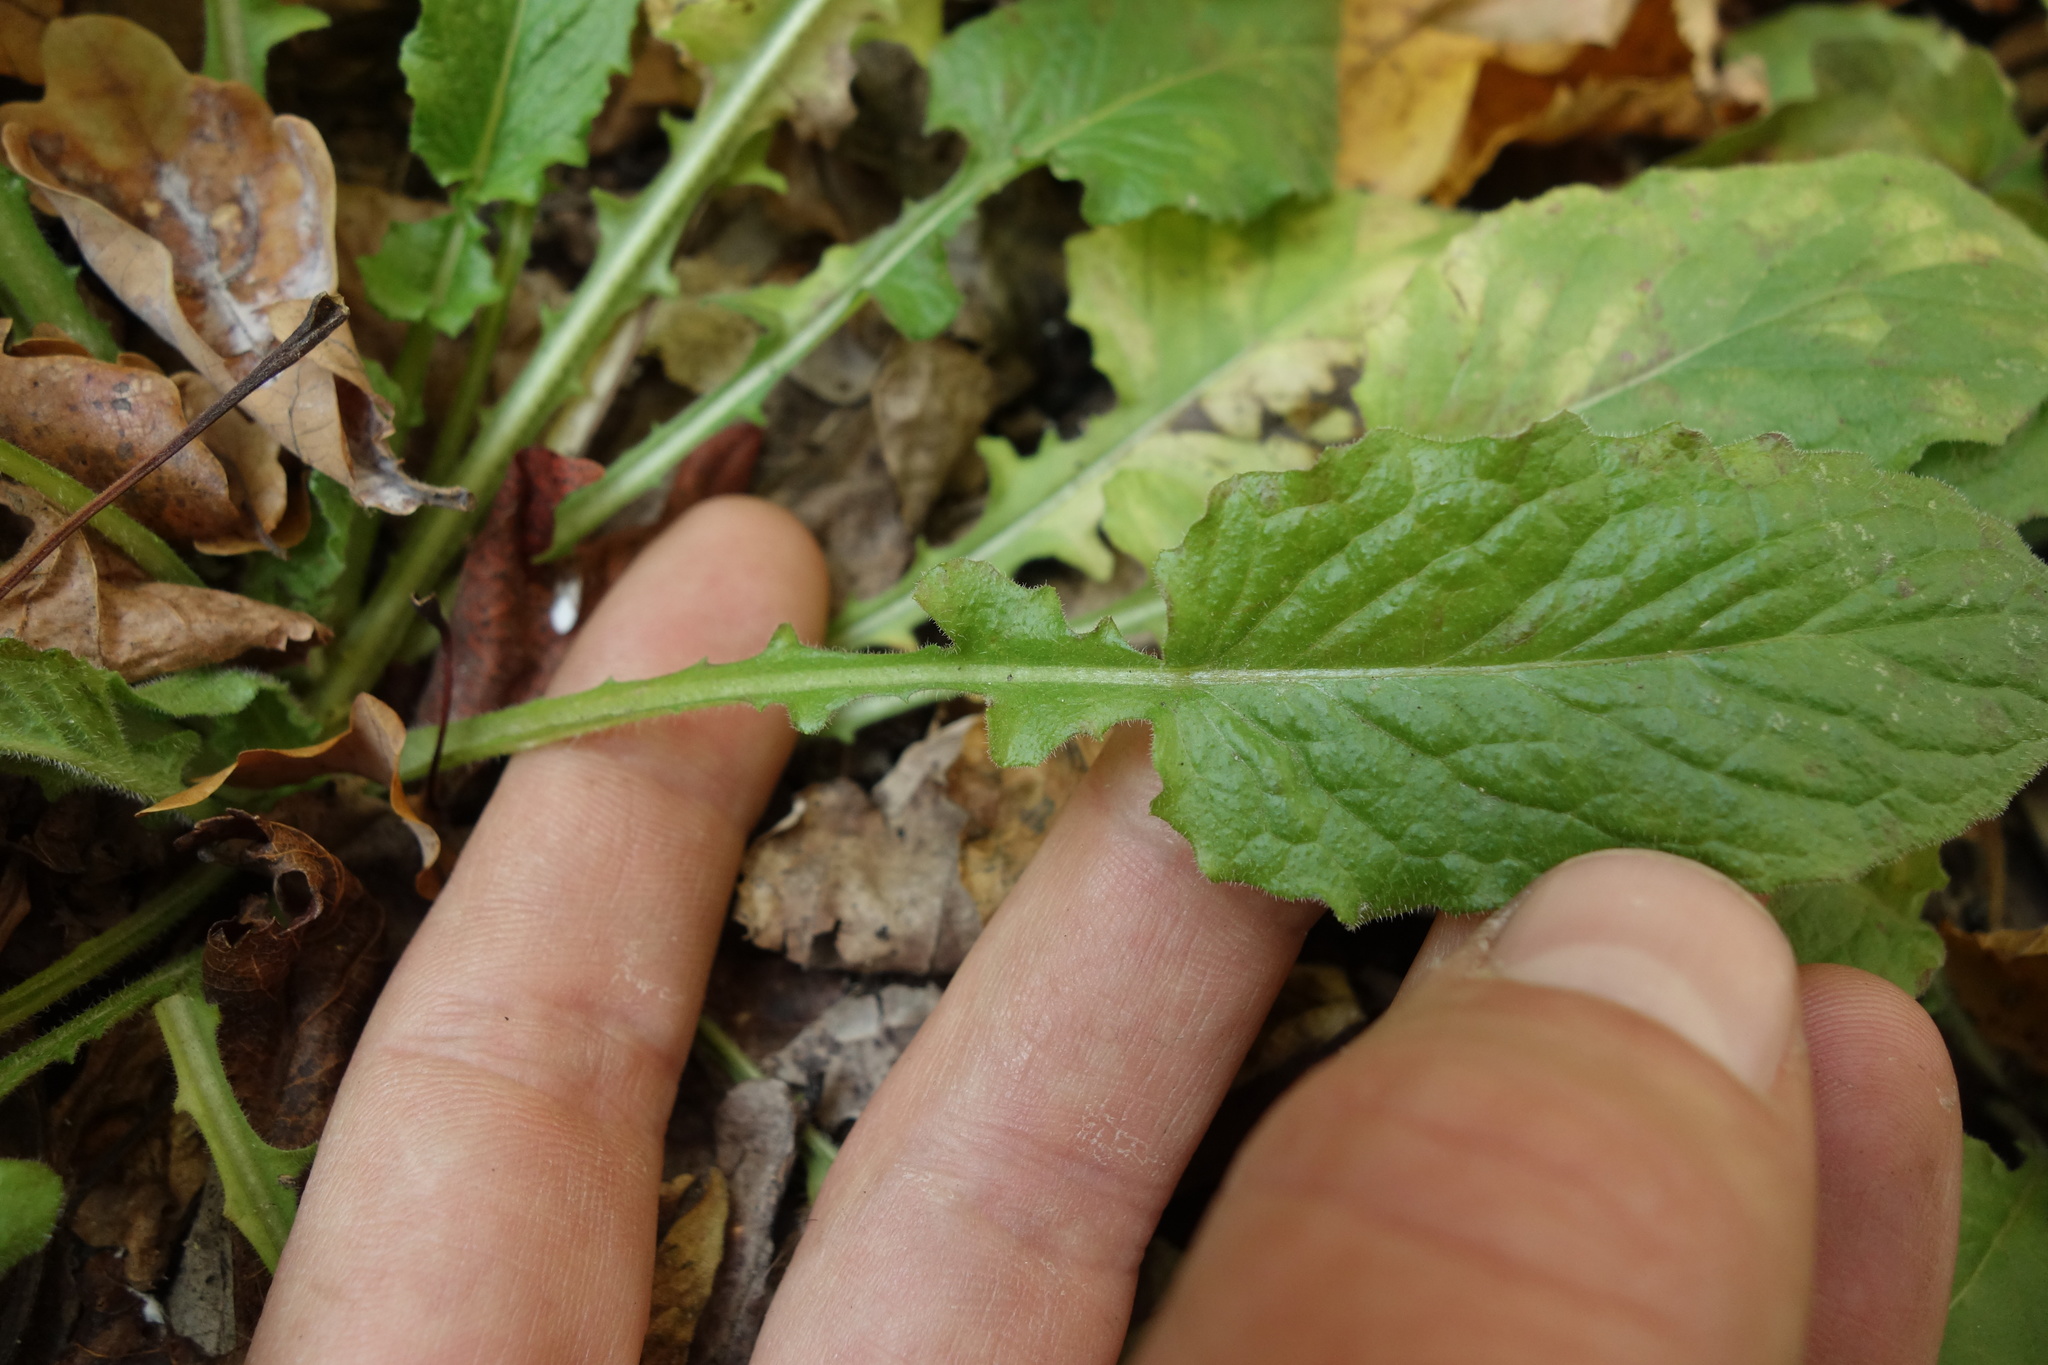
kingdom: Plantae
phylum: Tracheophyta
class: Magnoliopsida
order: Asterales
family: Asteraceae
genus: Lapsana
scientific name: Lapsana communis
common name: Nipplewort
